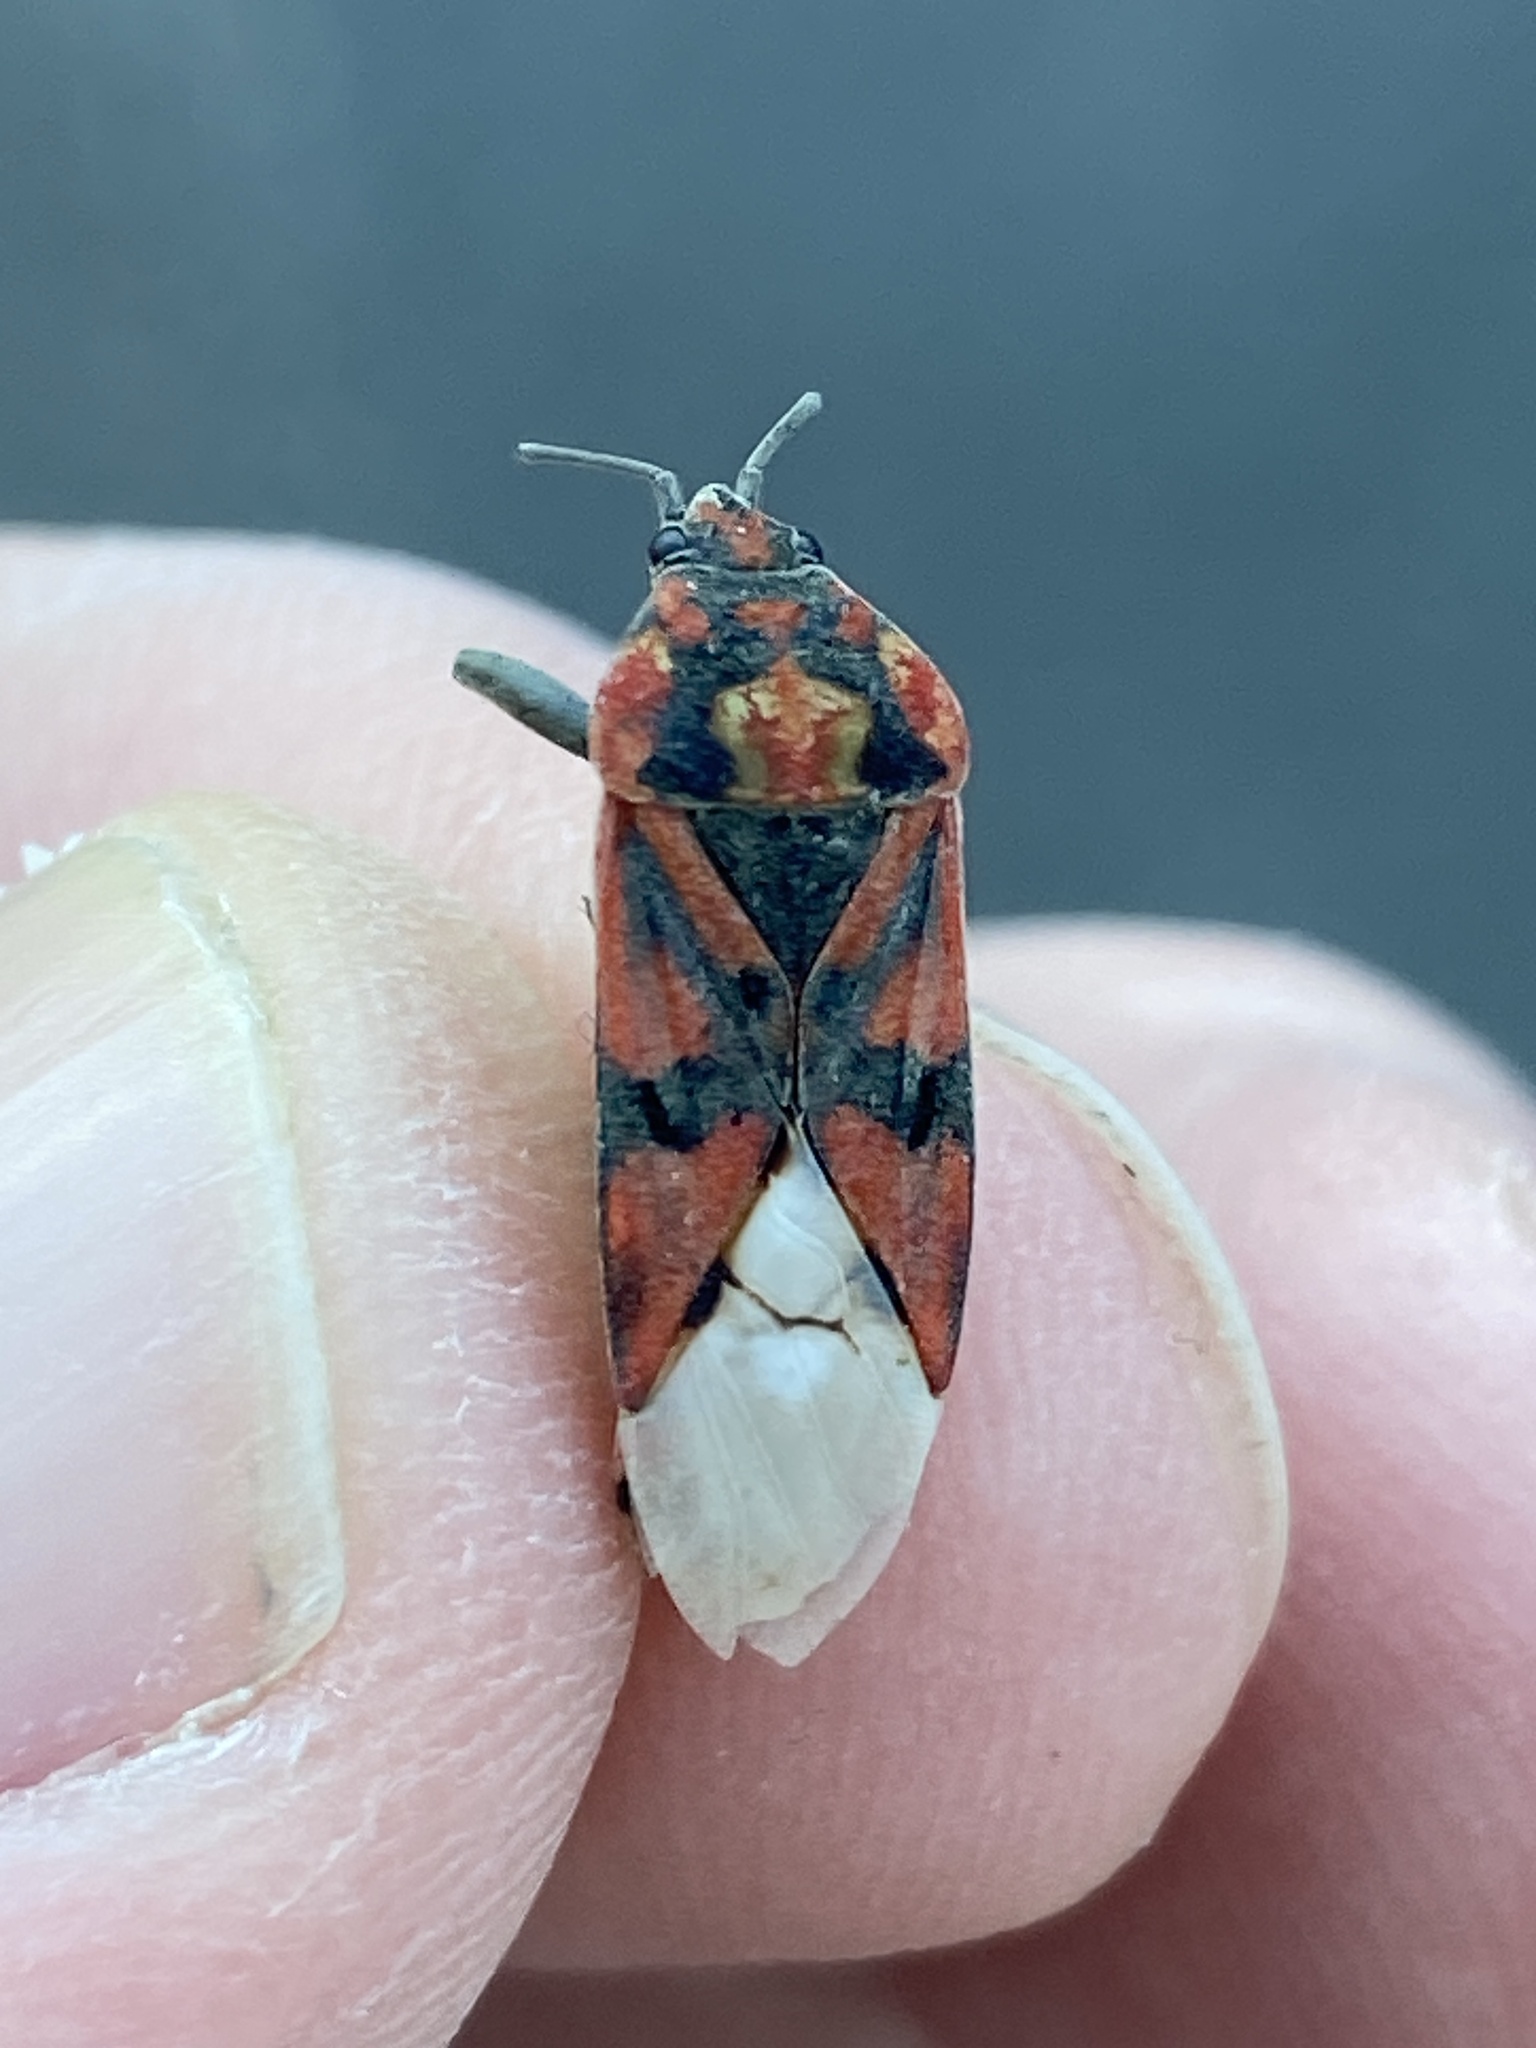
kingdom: Animalia
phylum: Arthropoda
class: Insecta
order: Hemiptera
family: Lygaeidae
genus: Spilostethus
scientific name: Spilostethus pandurus
